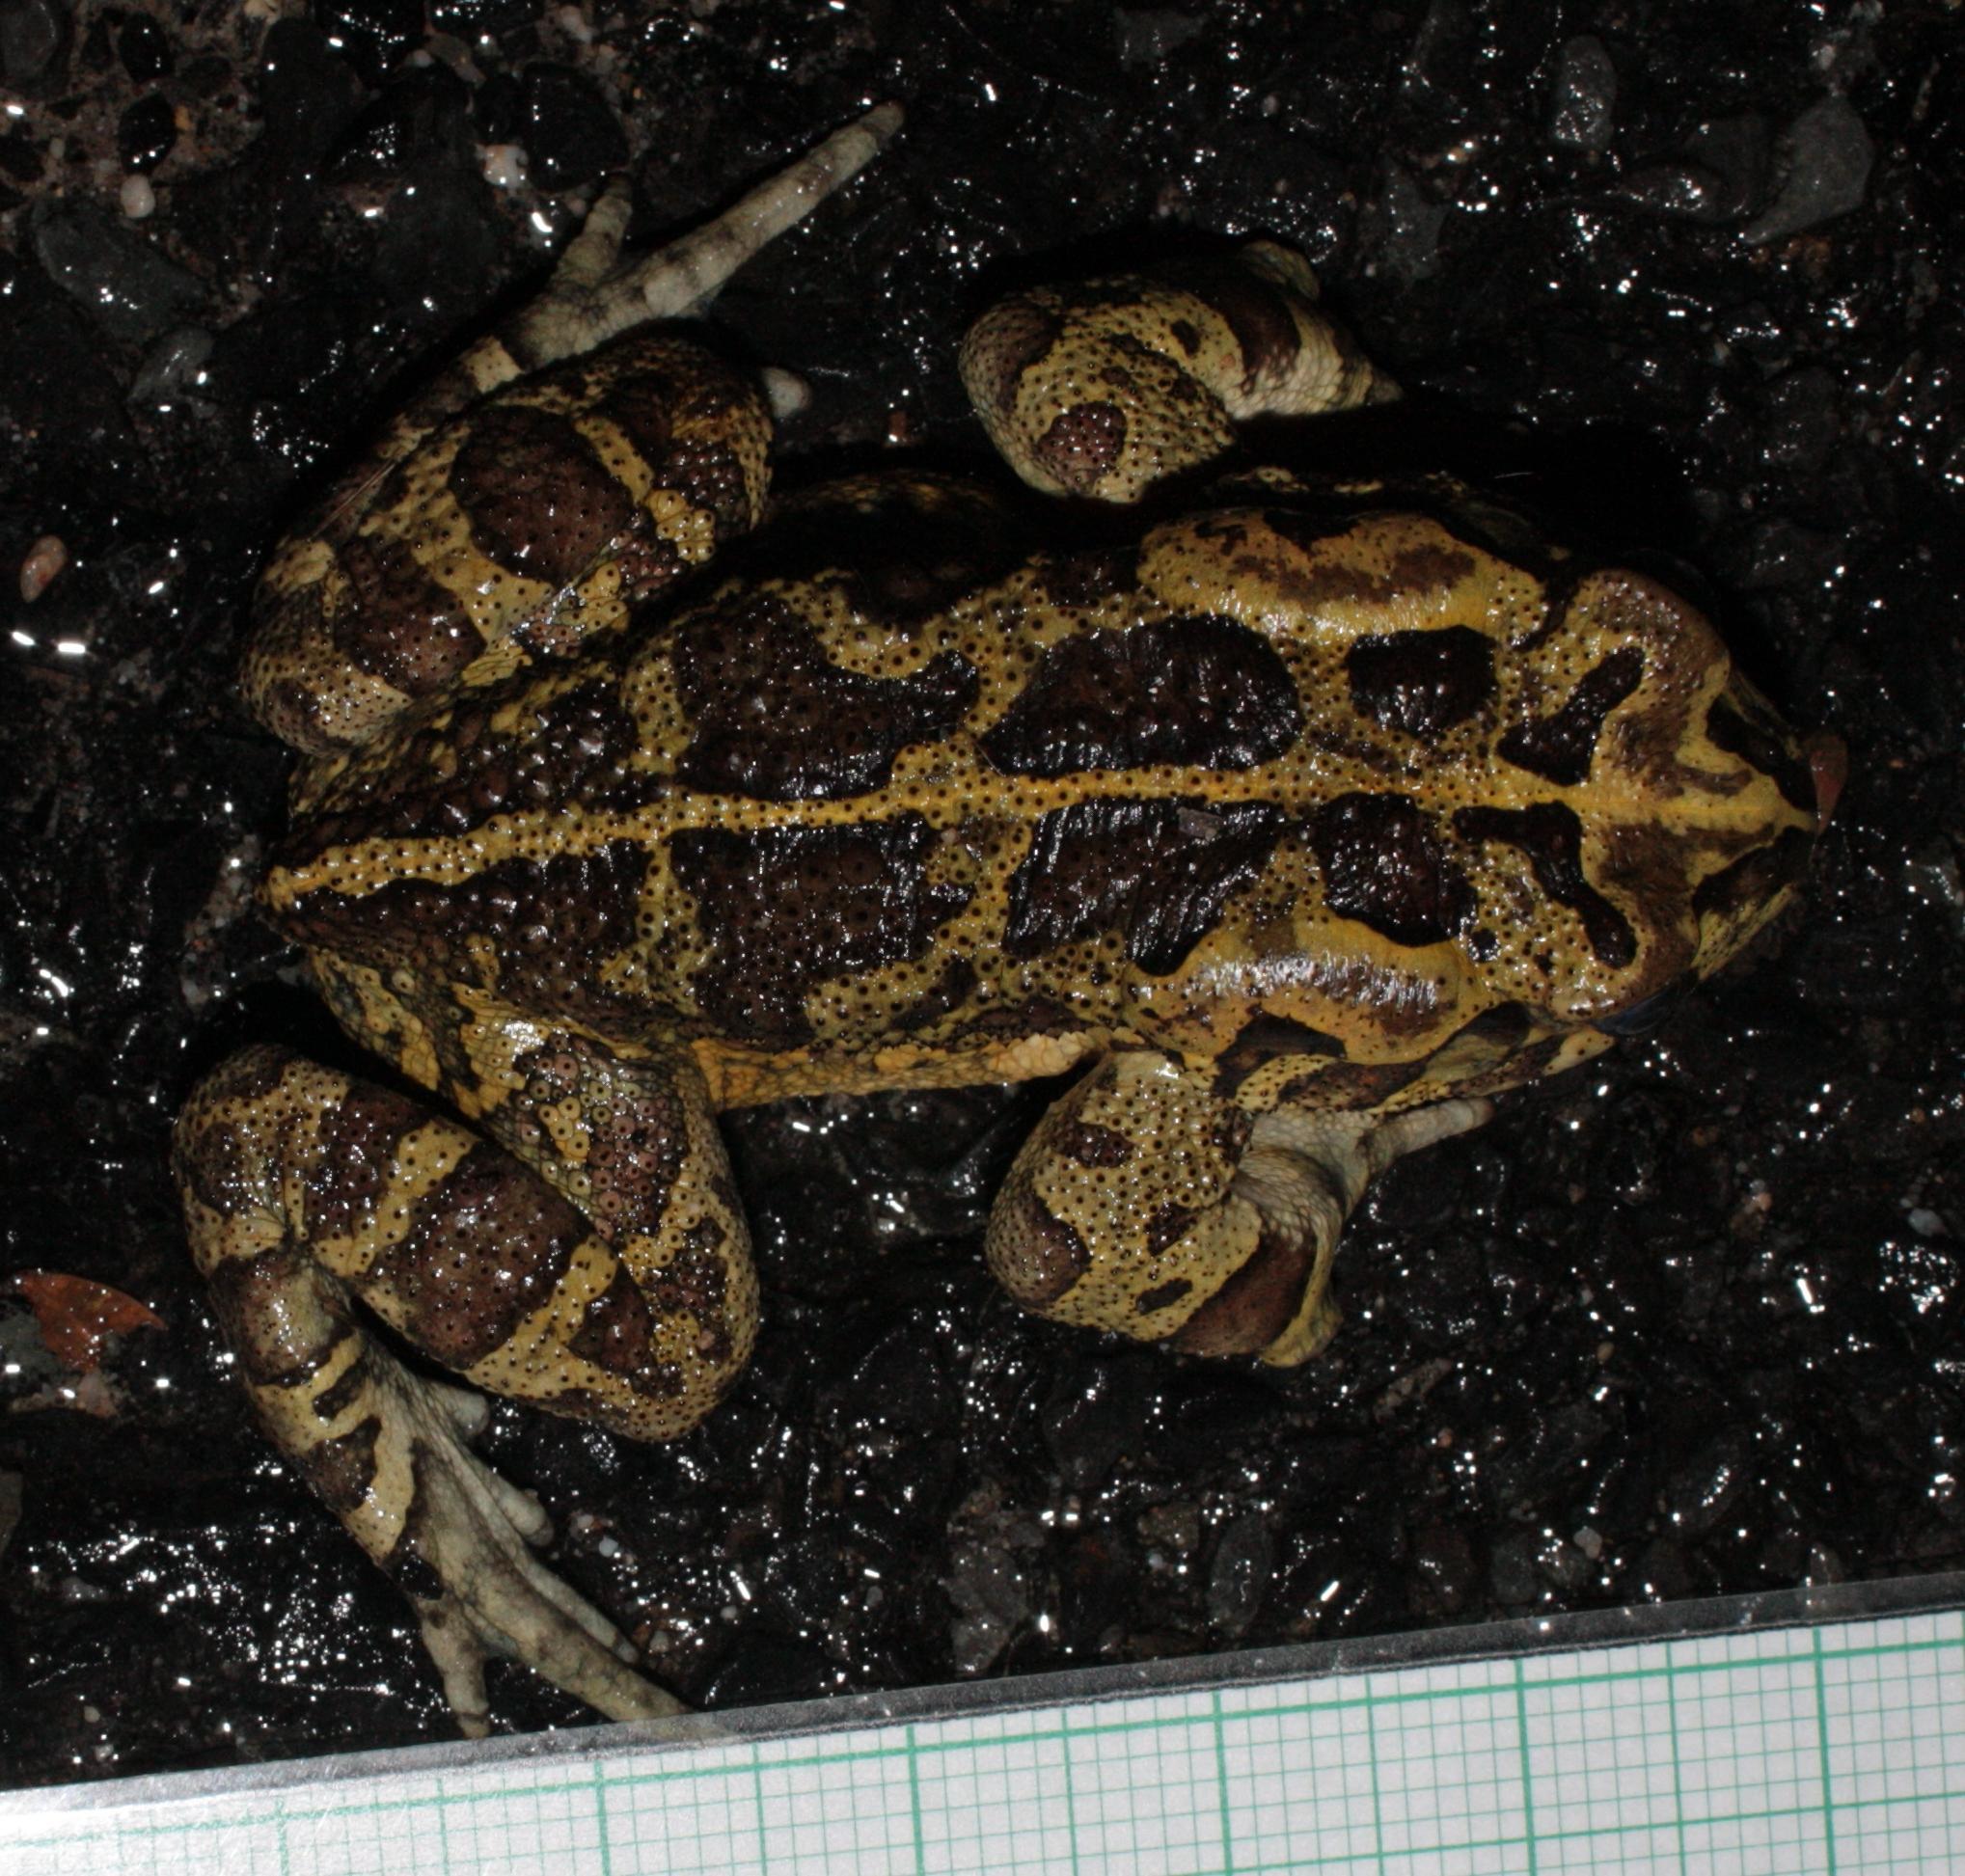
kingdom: Animalia
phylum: Chordata
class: Amphibia
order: Anura
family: Bufonidae
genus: Sclerophrys
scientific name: Sclerophrys pantherina
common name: Panther toad
